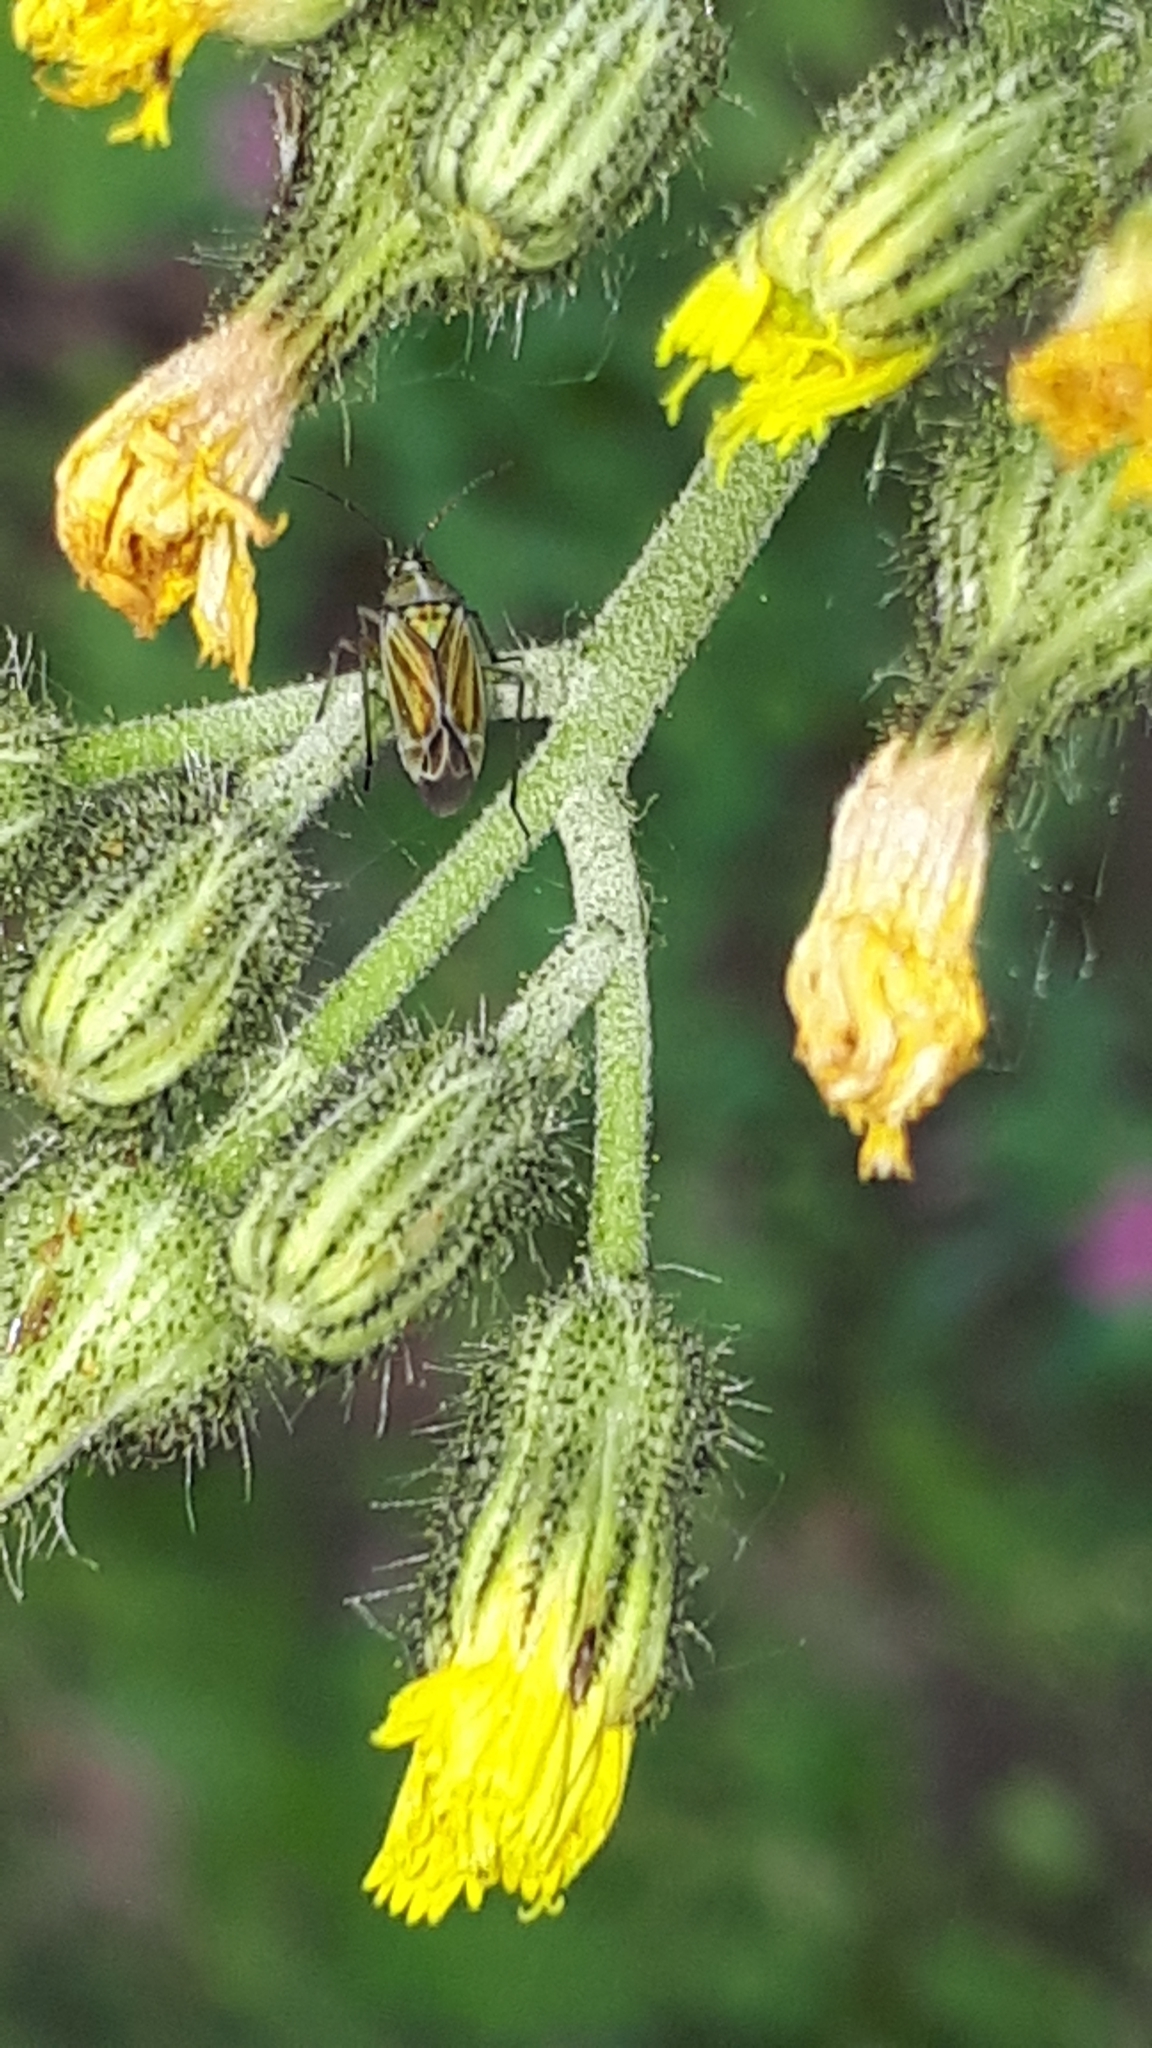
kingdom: Animalia
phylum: Arthropoda
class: Insecta
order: Hemiptera
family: Miridae
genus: Hoplomachus
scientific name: Hoplomachus thunbergii
